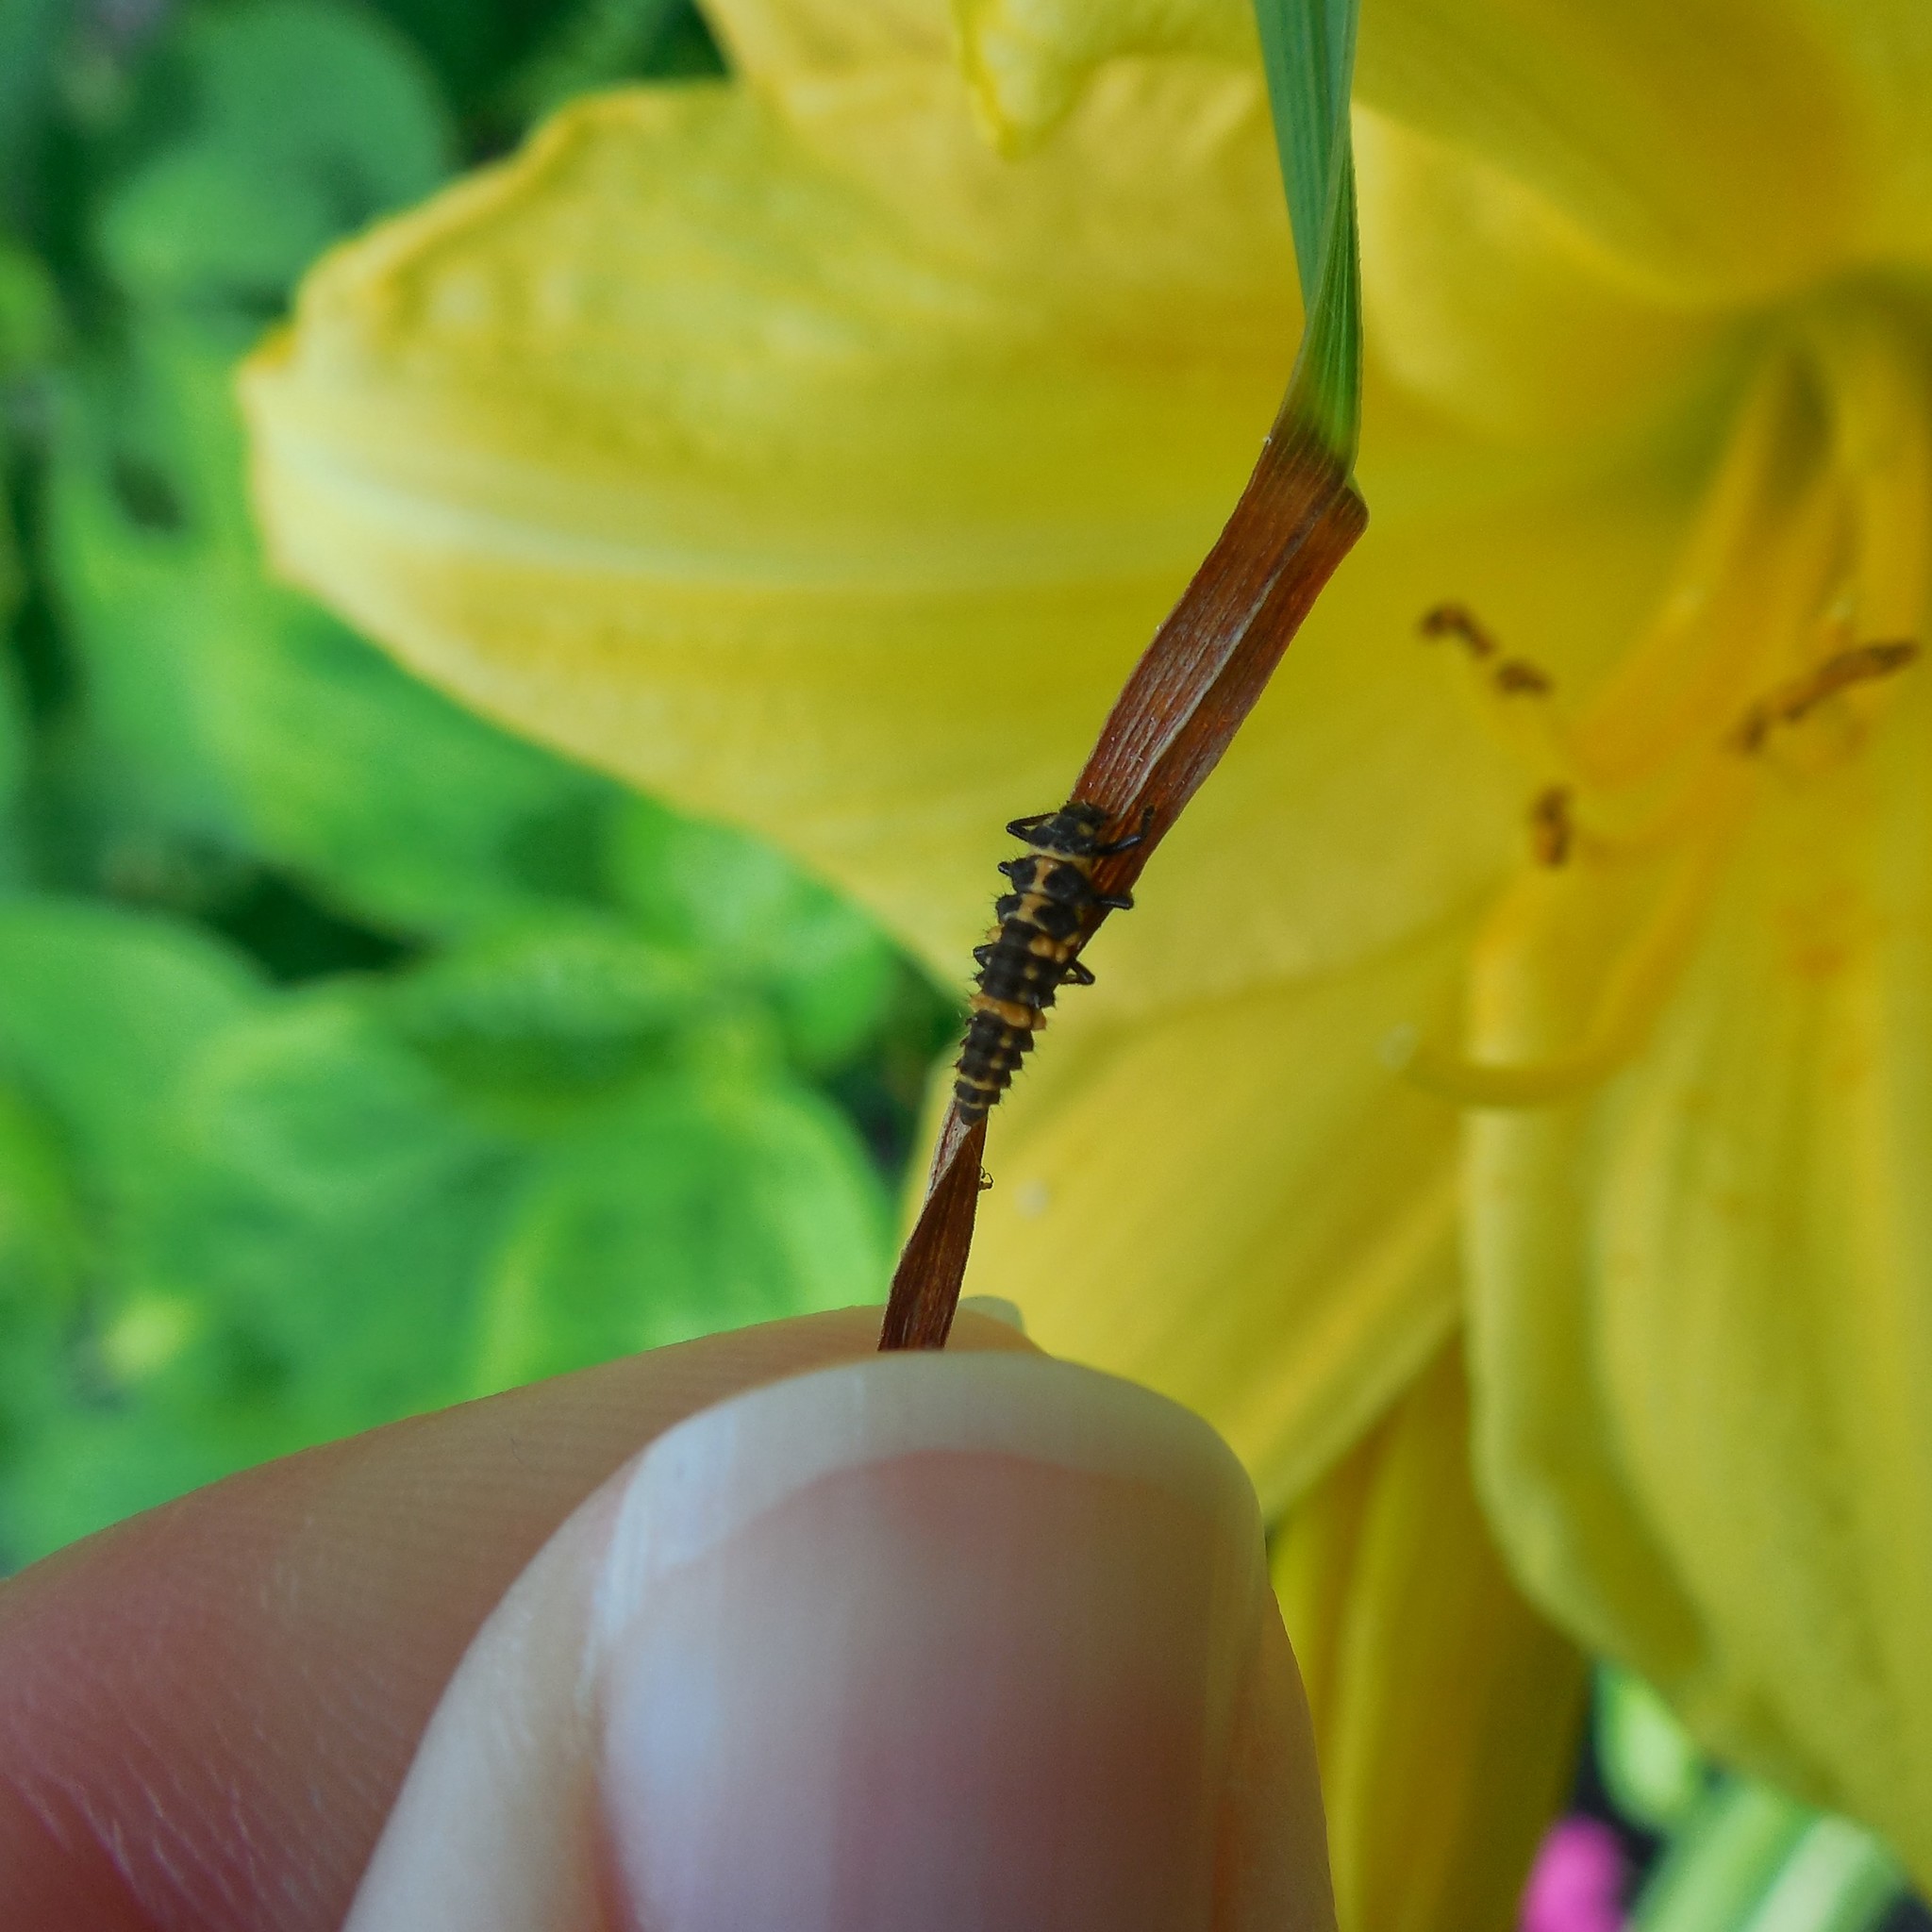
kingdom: Animalia
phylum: Arthropoda
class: Insecta
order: Coleoptera
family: Coccinellidae
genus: Coleomegilla
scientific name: Coleomegilla maculata
